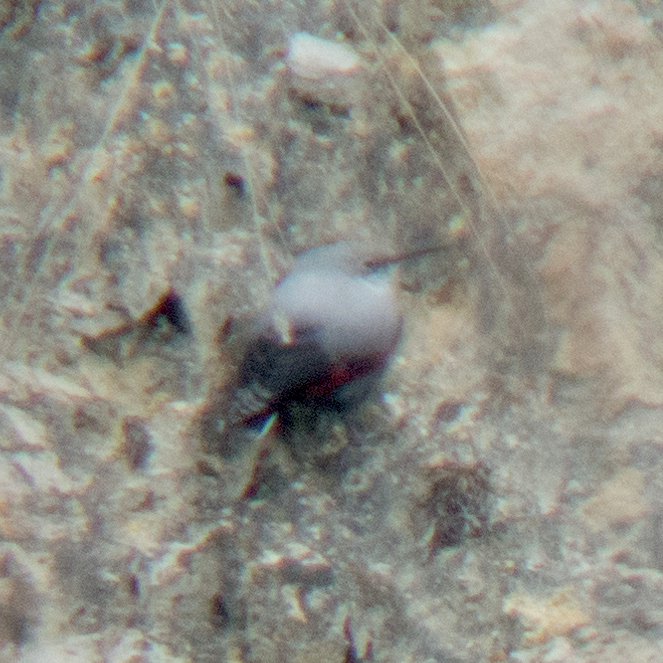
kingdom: Animalia
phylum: Chordata
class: Aves
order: Passeriformes
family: Tichodromidae
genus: Tichodroma
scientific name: Tichodroma muraria
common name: Wallcreeper
